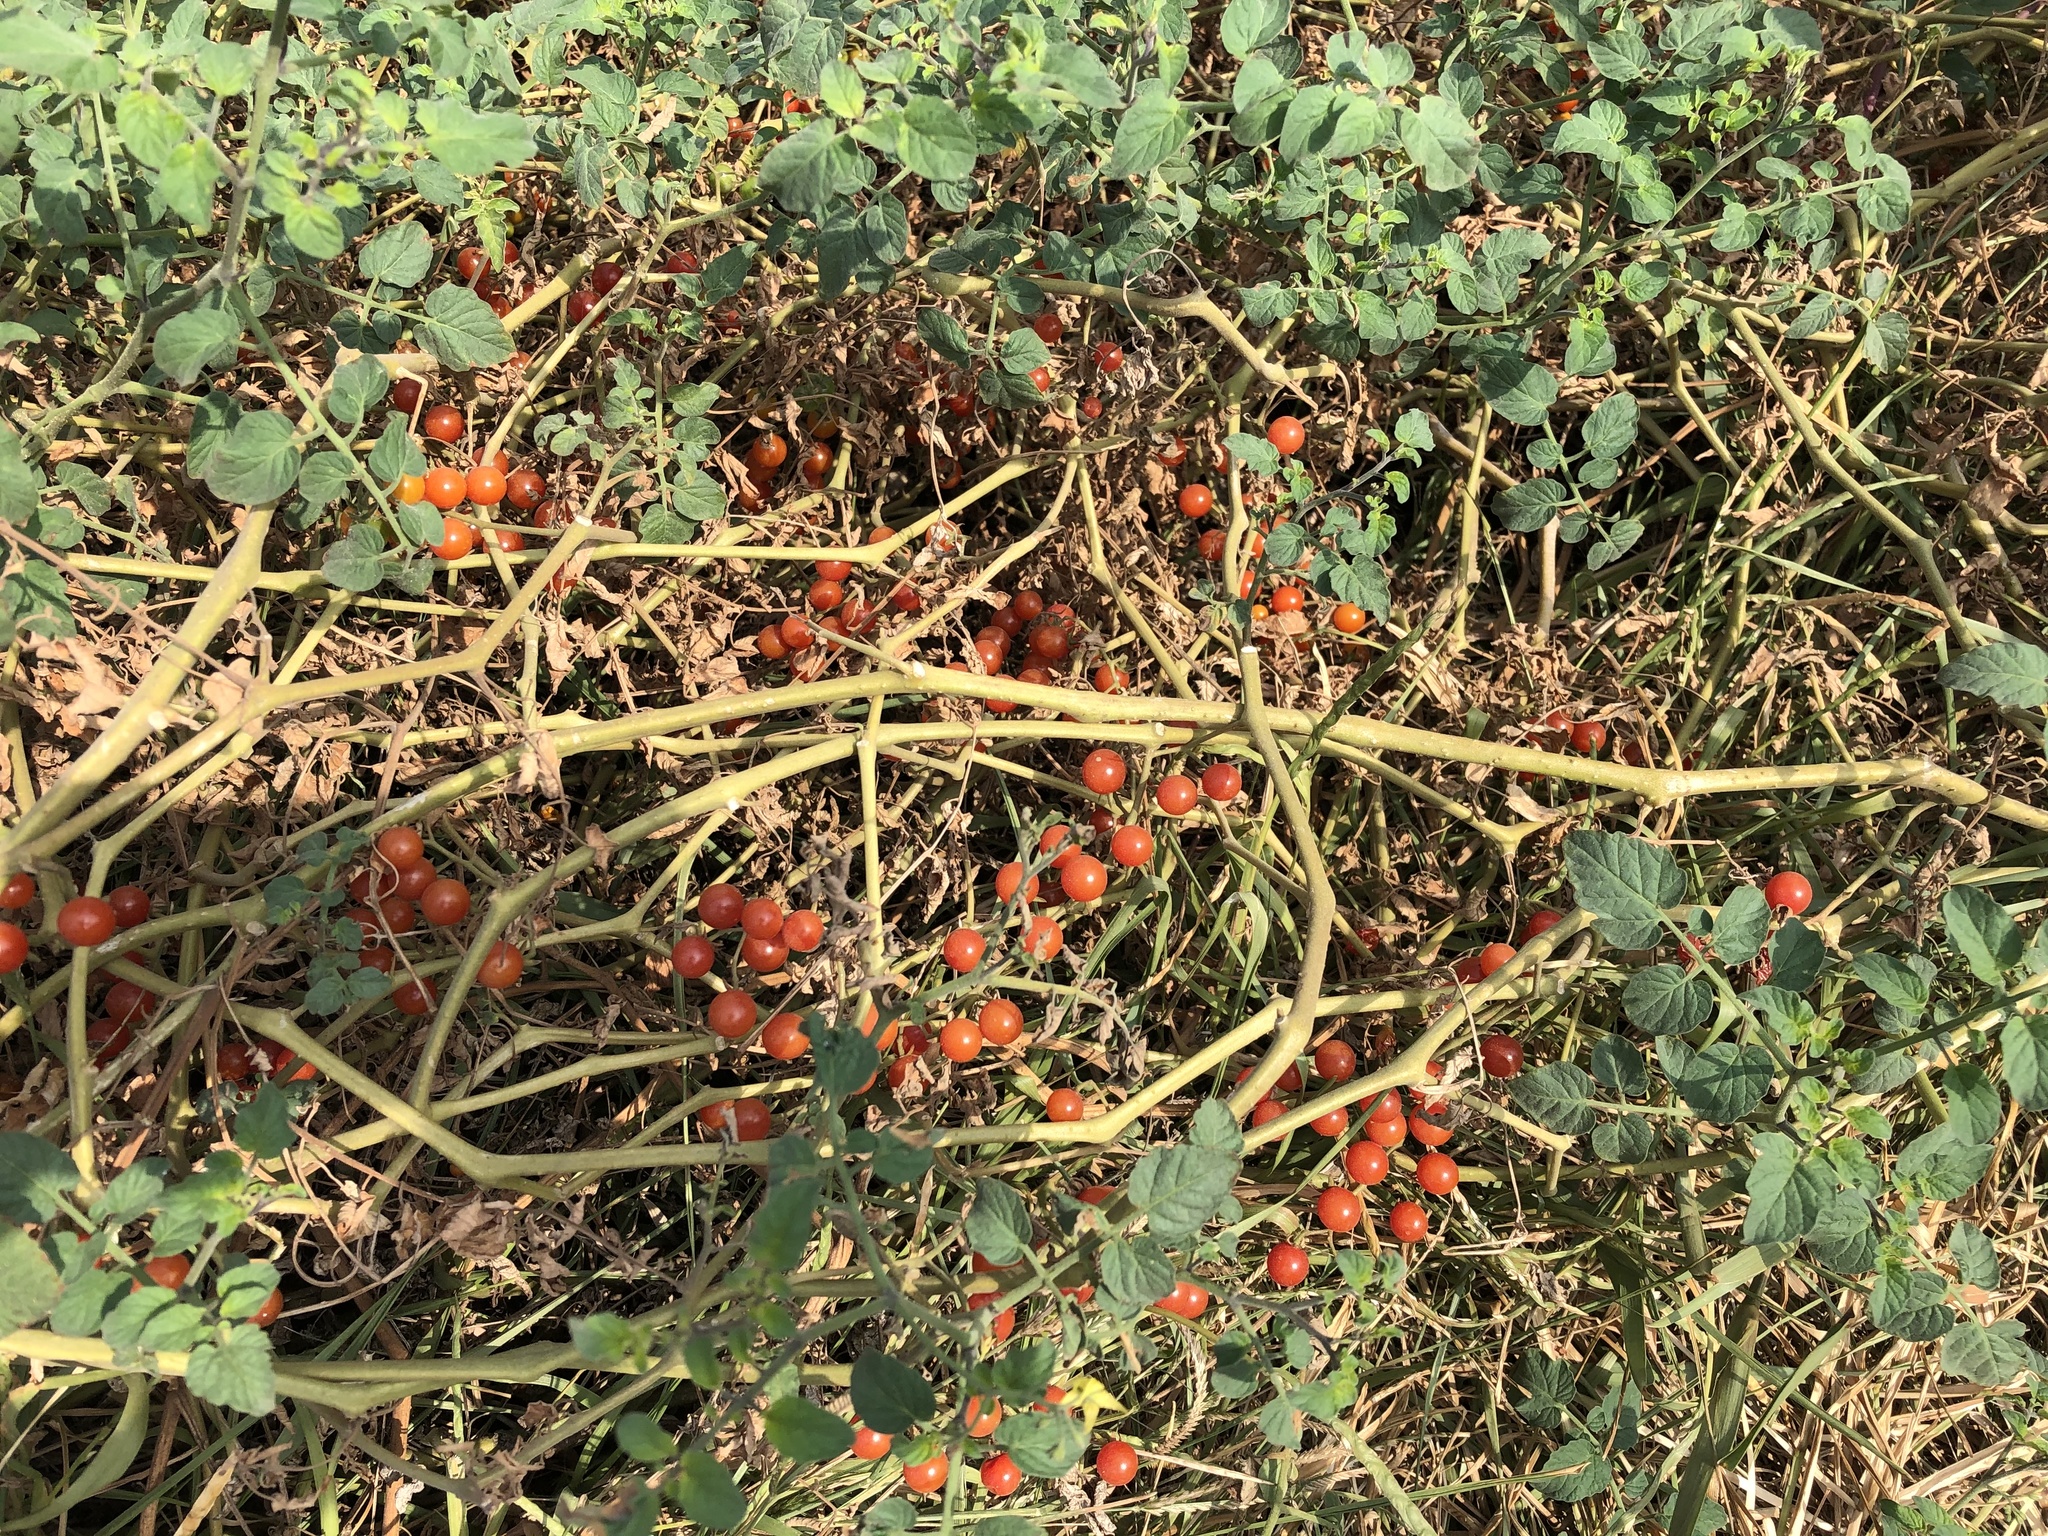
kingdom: Plantae
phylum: Tracheophyta
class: Magnoliopsida
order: Solanales
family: Solanaceae
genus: Solanum
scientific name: Solanum pimpinellifolium
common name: Currant-tomato
